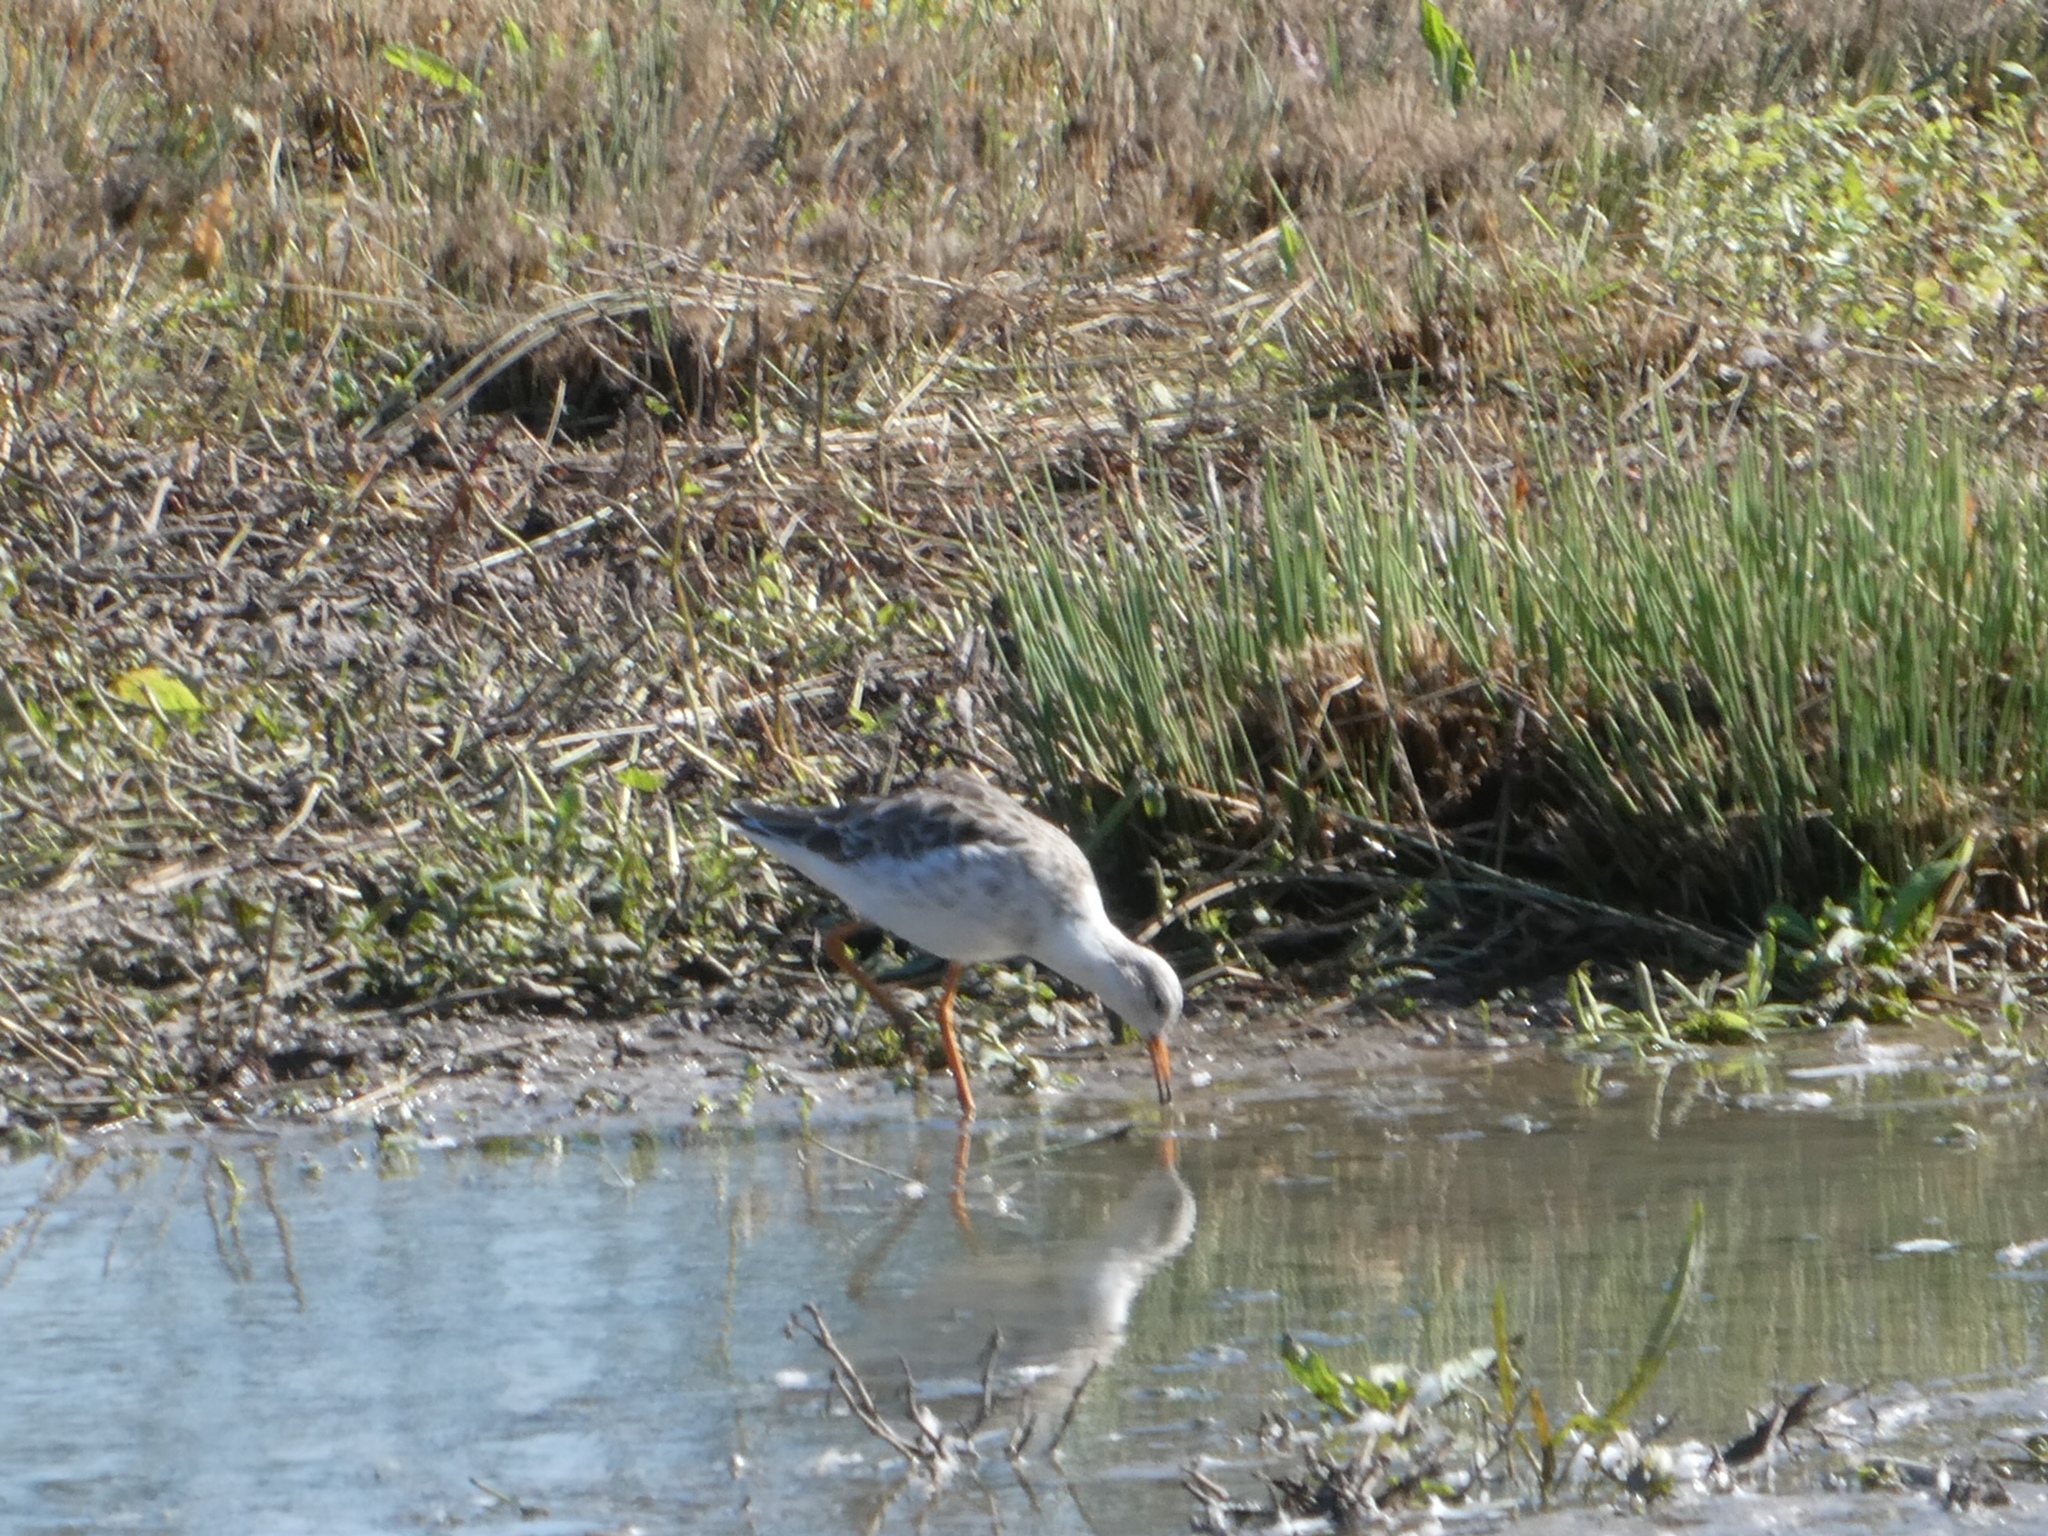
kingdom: Animalia
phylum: Chordata
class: Aves
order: Charadriiformes
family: Scolopacidae
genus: Calidris
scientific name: Calidris pugnax
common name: Ruff
